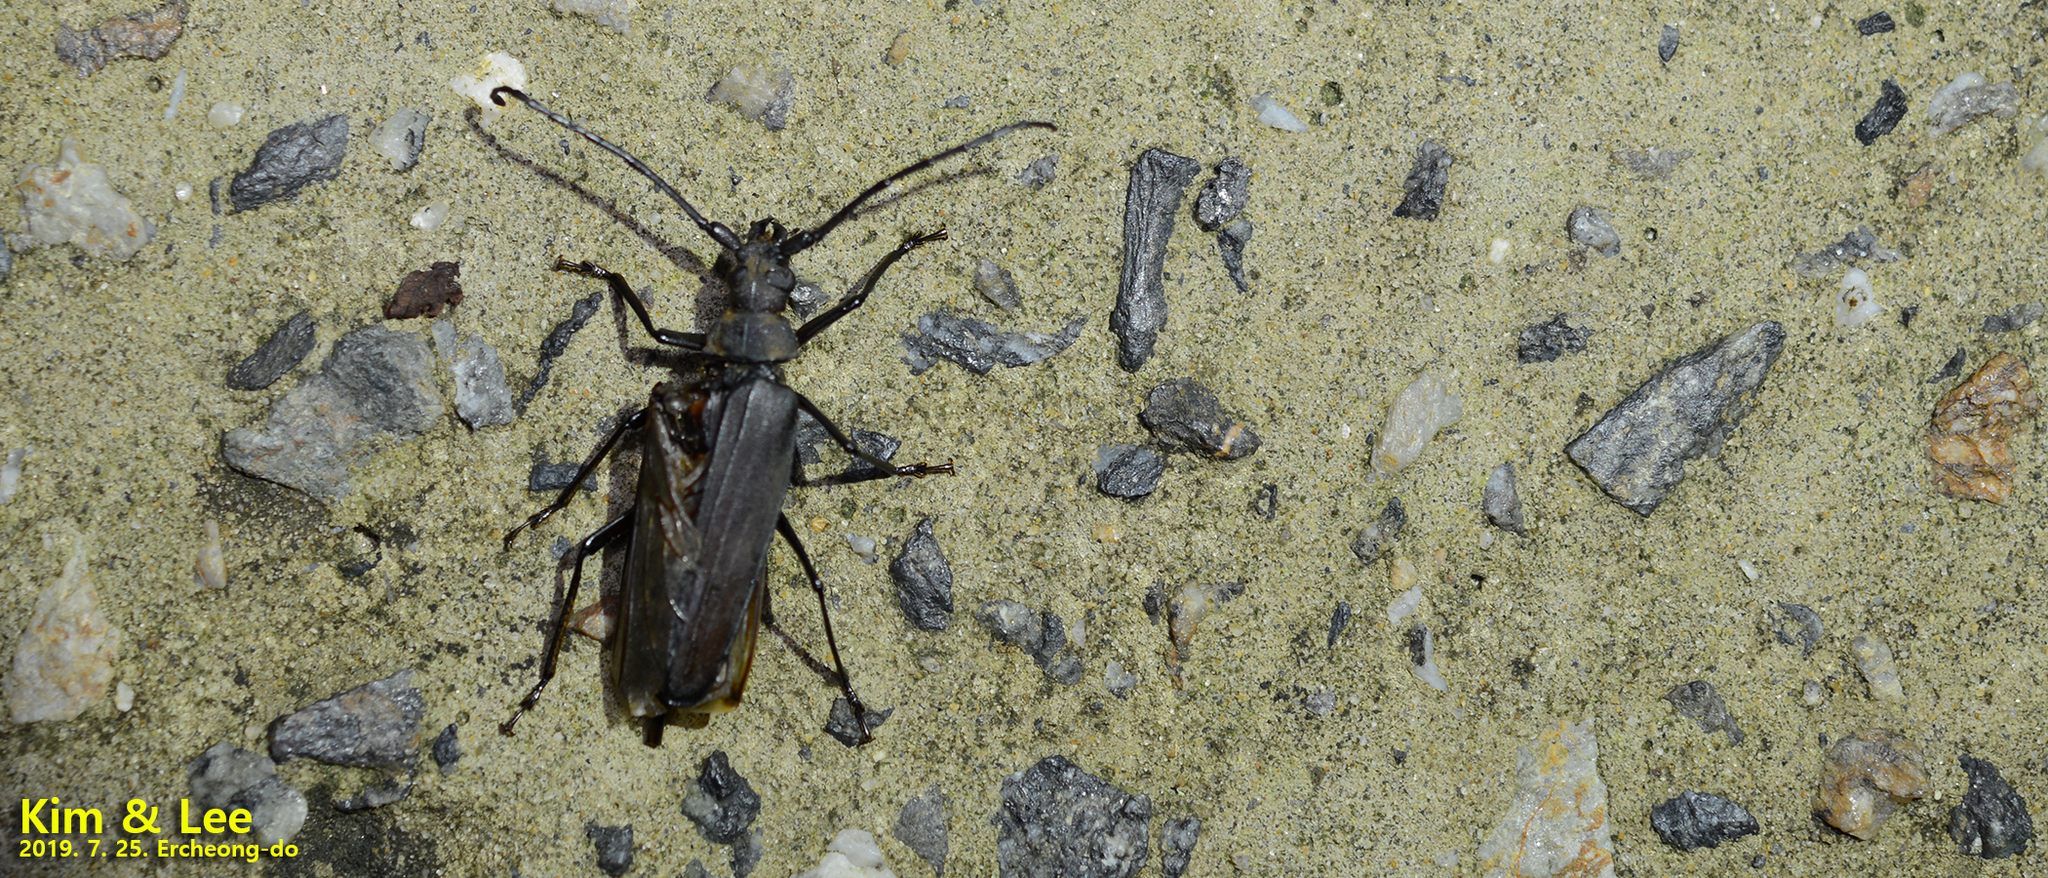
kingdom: Animalia
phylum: Arthropoda
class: Insecta
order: Coleoptera
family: Cerambycidae
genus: Aegosoma
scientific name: Aegosoma sinicum
